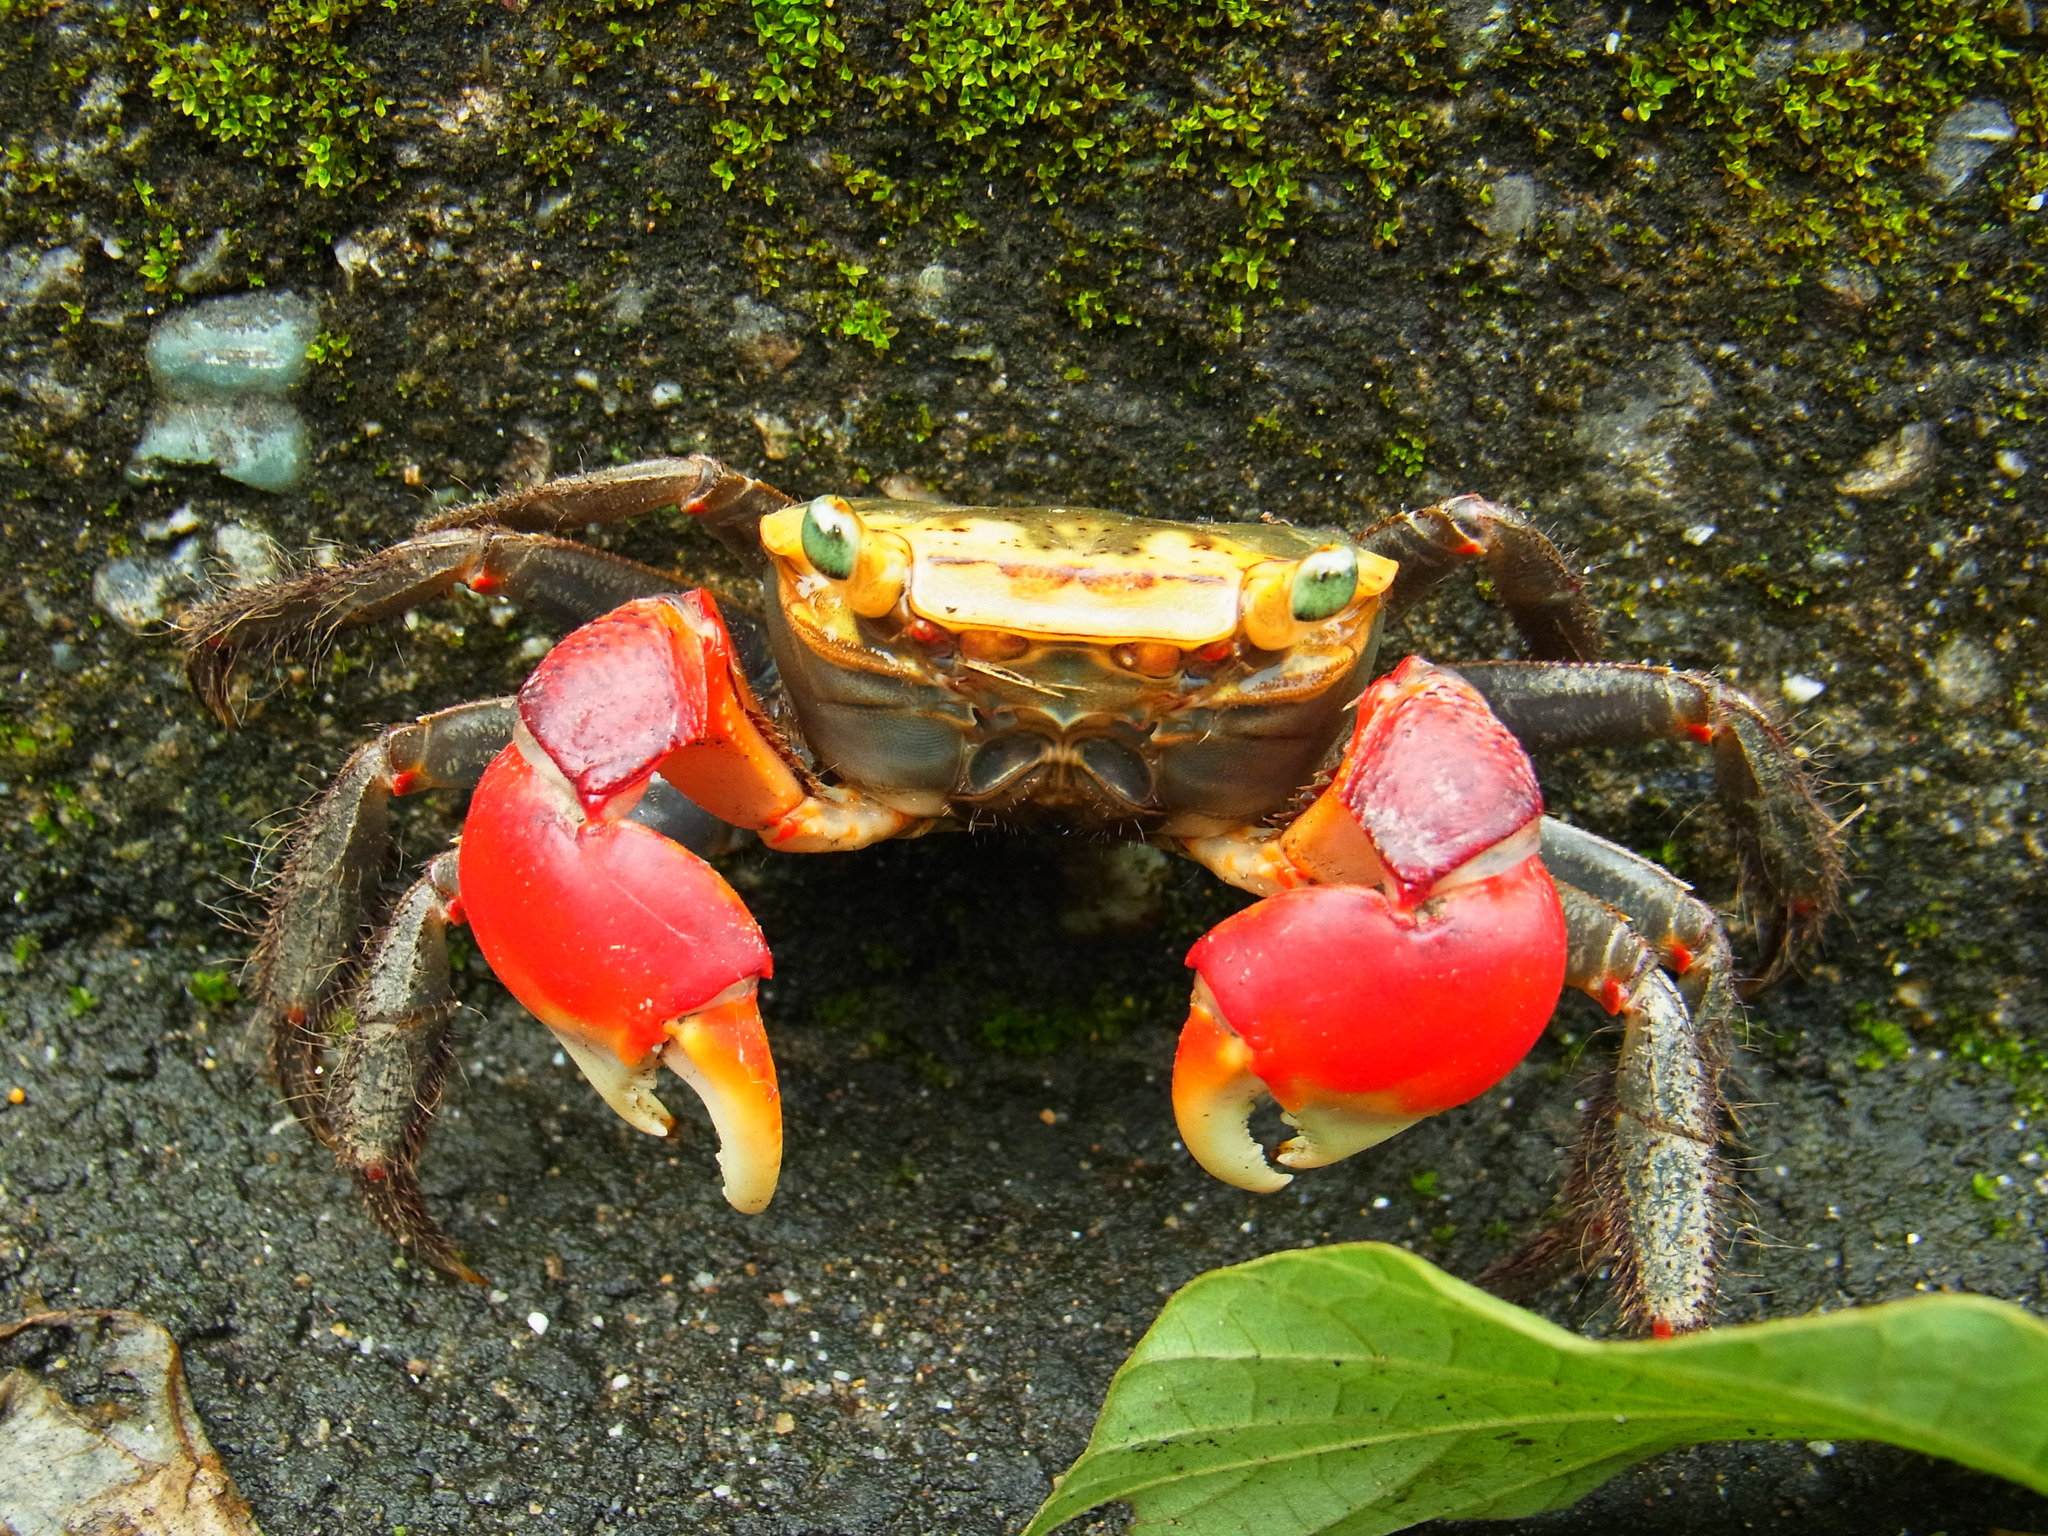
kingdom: Animalia
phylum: Arthropoda
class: Malacostraca
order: Decapoda
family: Sesarmidae
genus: Chiromantes
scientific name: Chiromantes haematocheir
